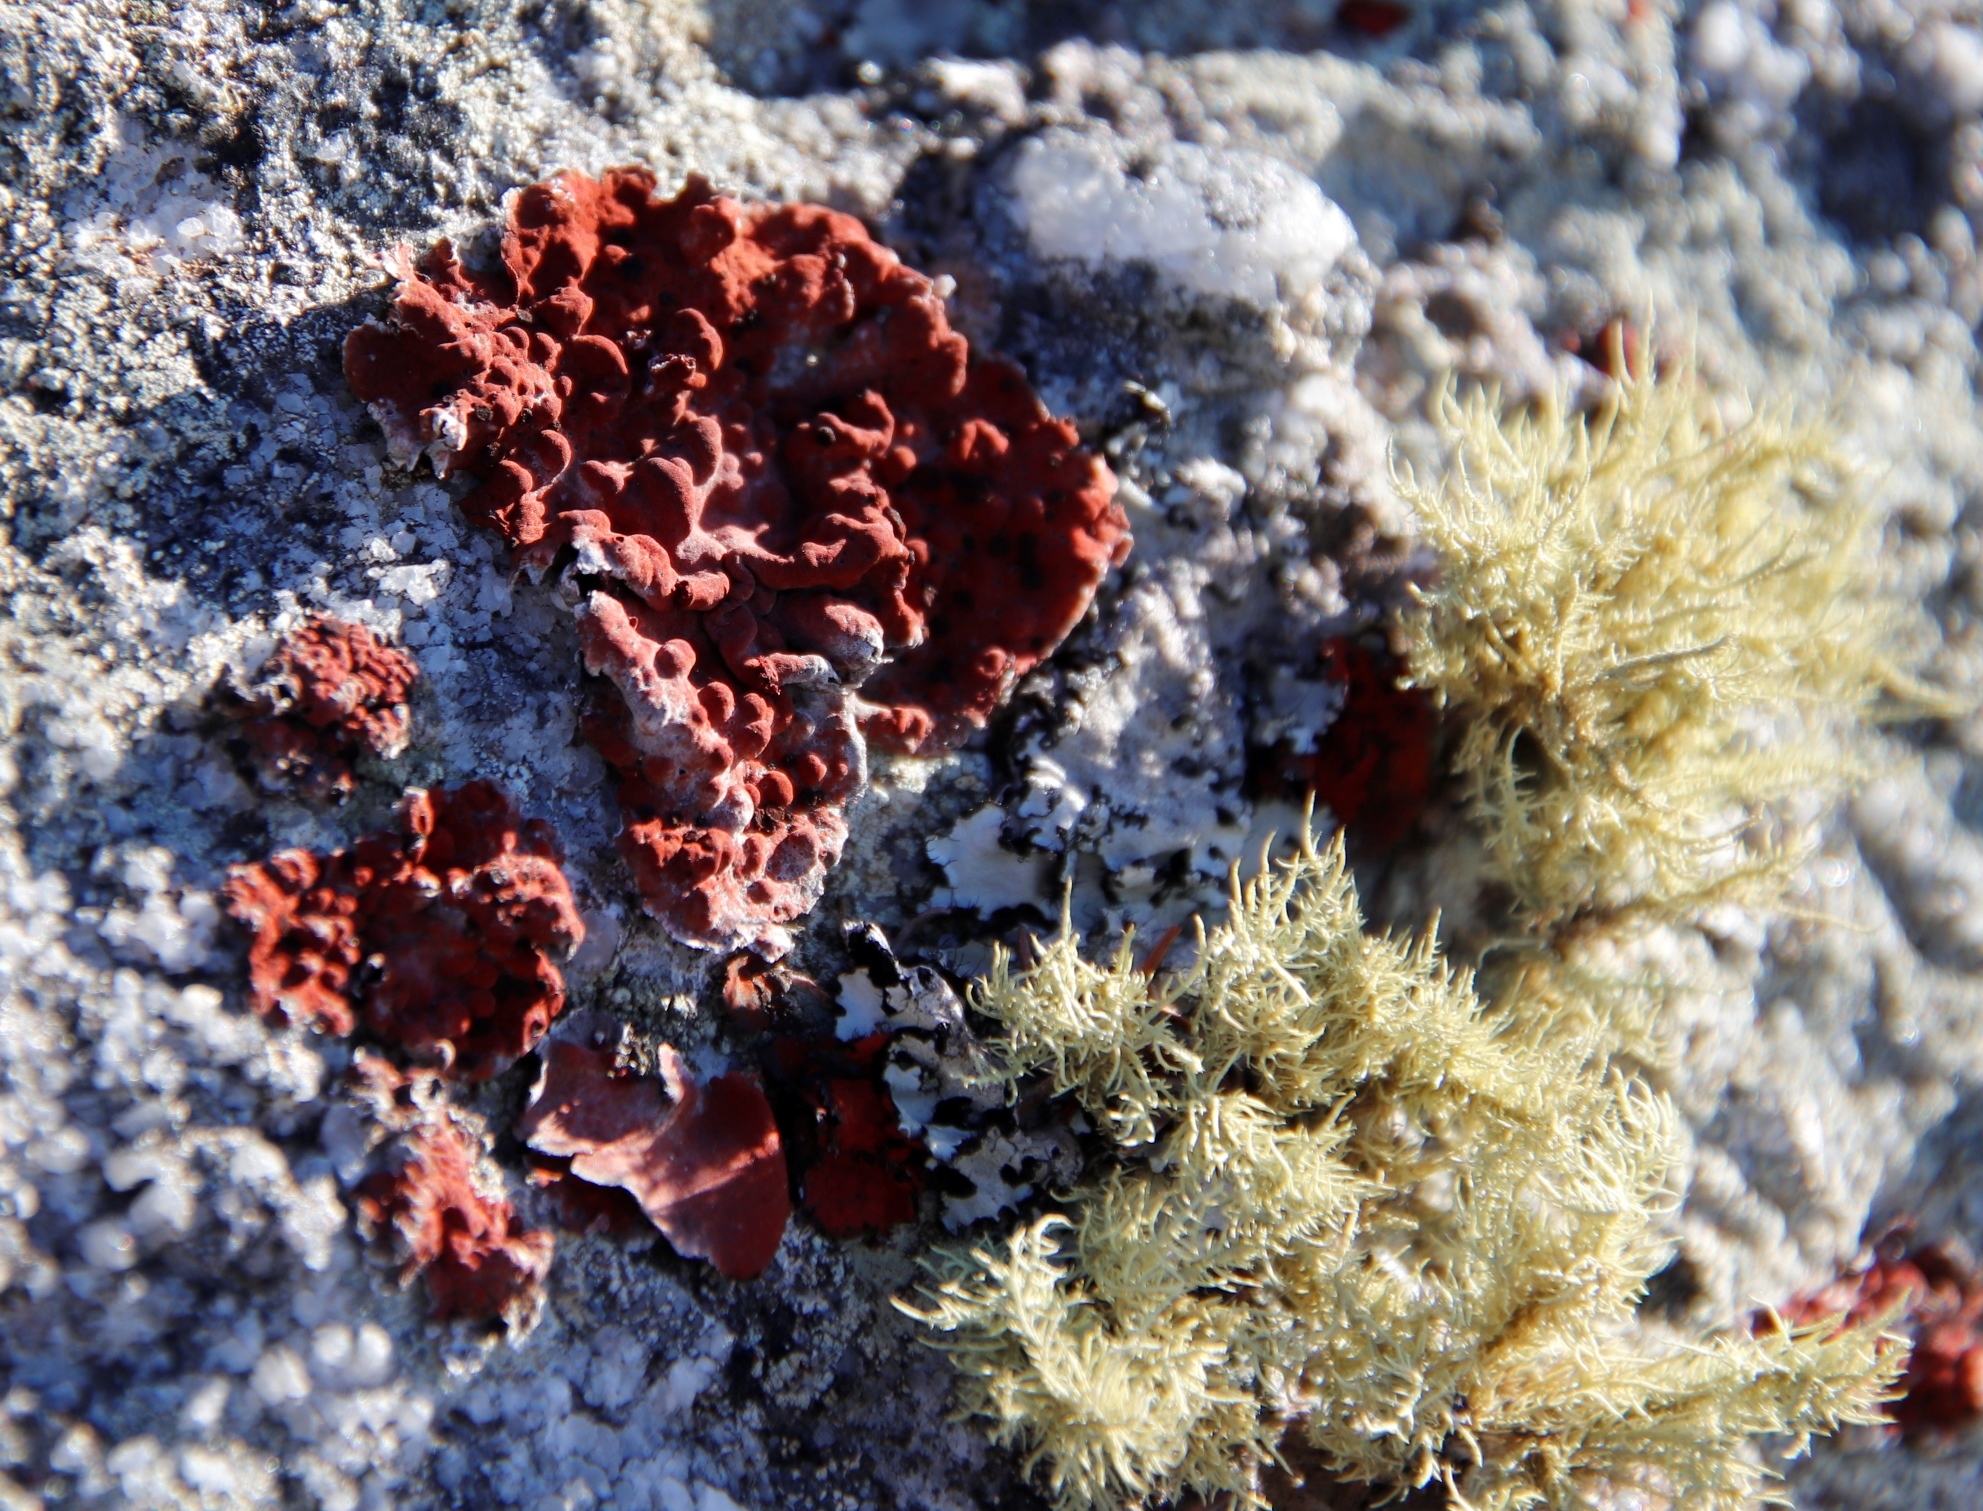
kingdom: Fungi
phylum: Ascomycota
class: Lecanoromycetes
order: Umbilicariales
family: Umbilicariaceae
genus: Lasallia
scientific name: Lasallia rubiginosa
